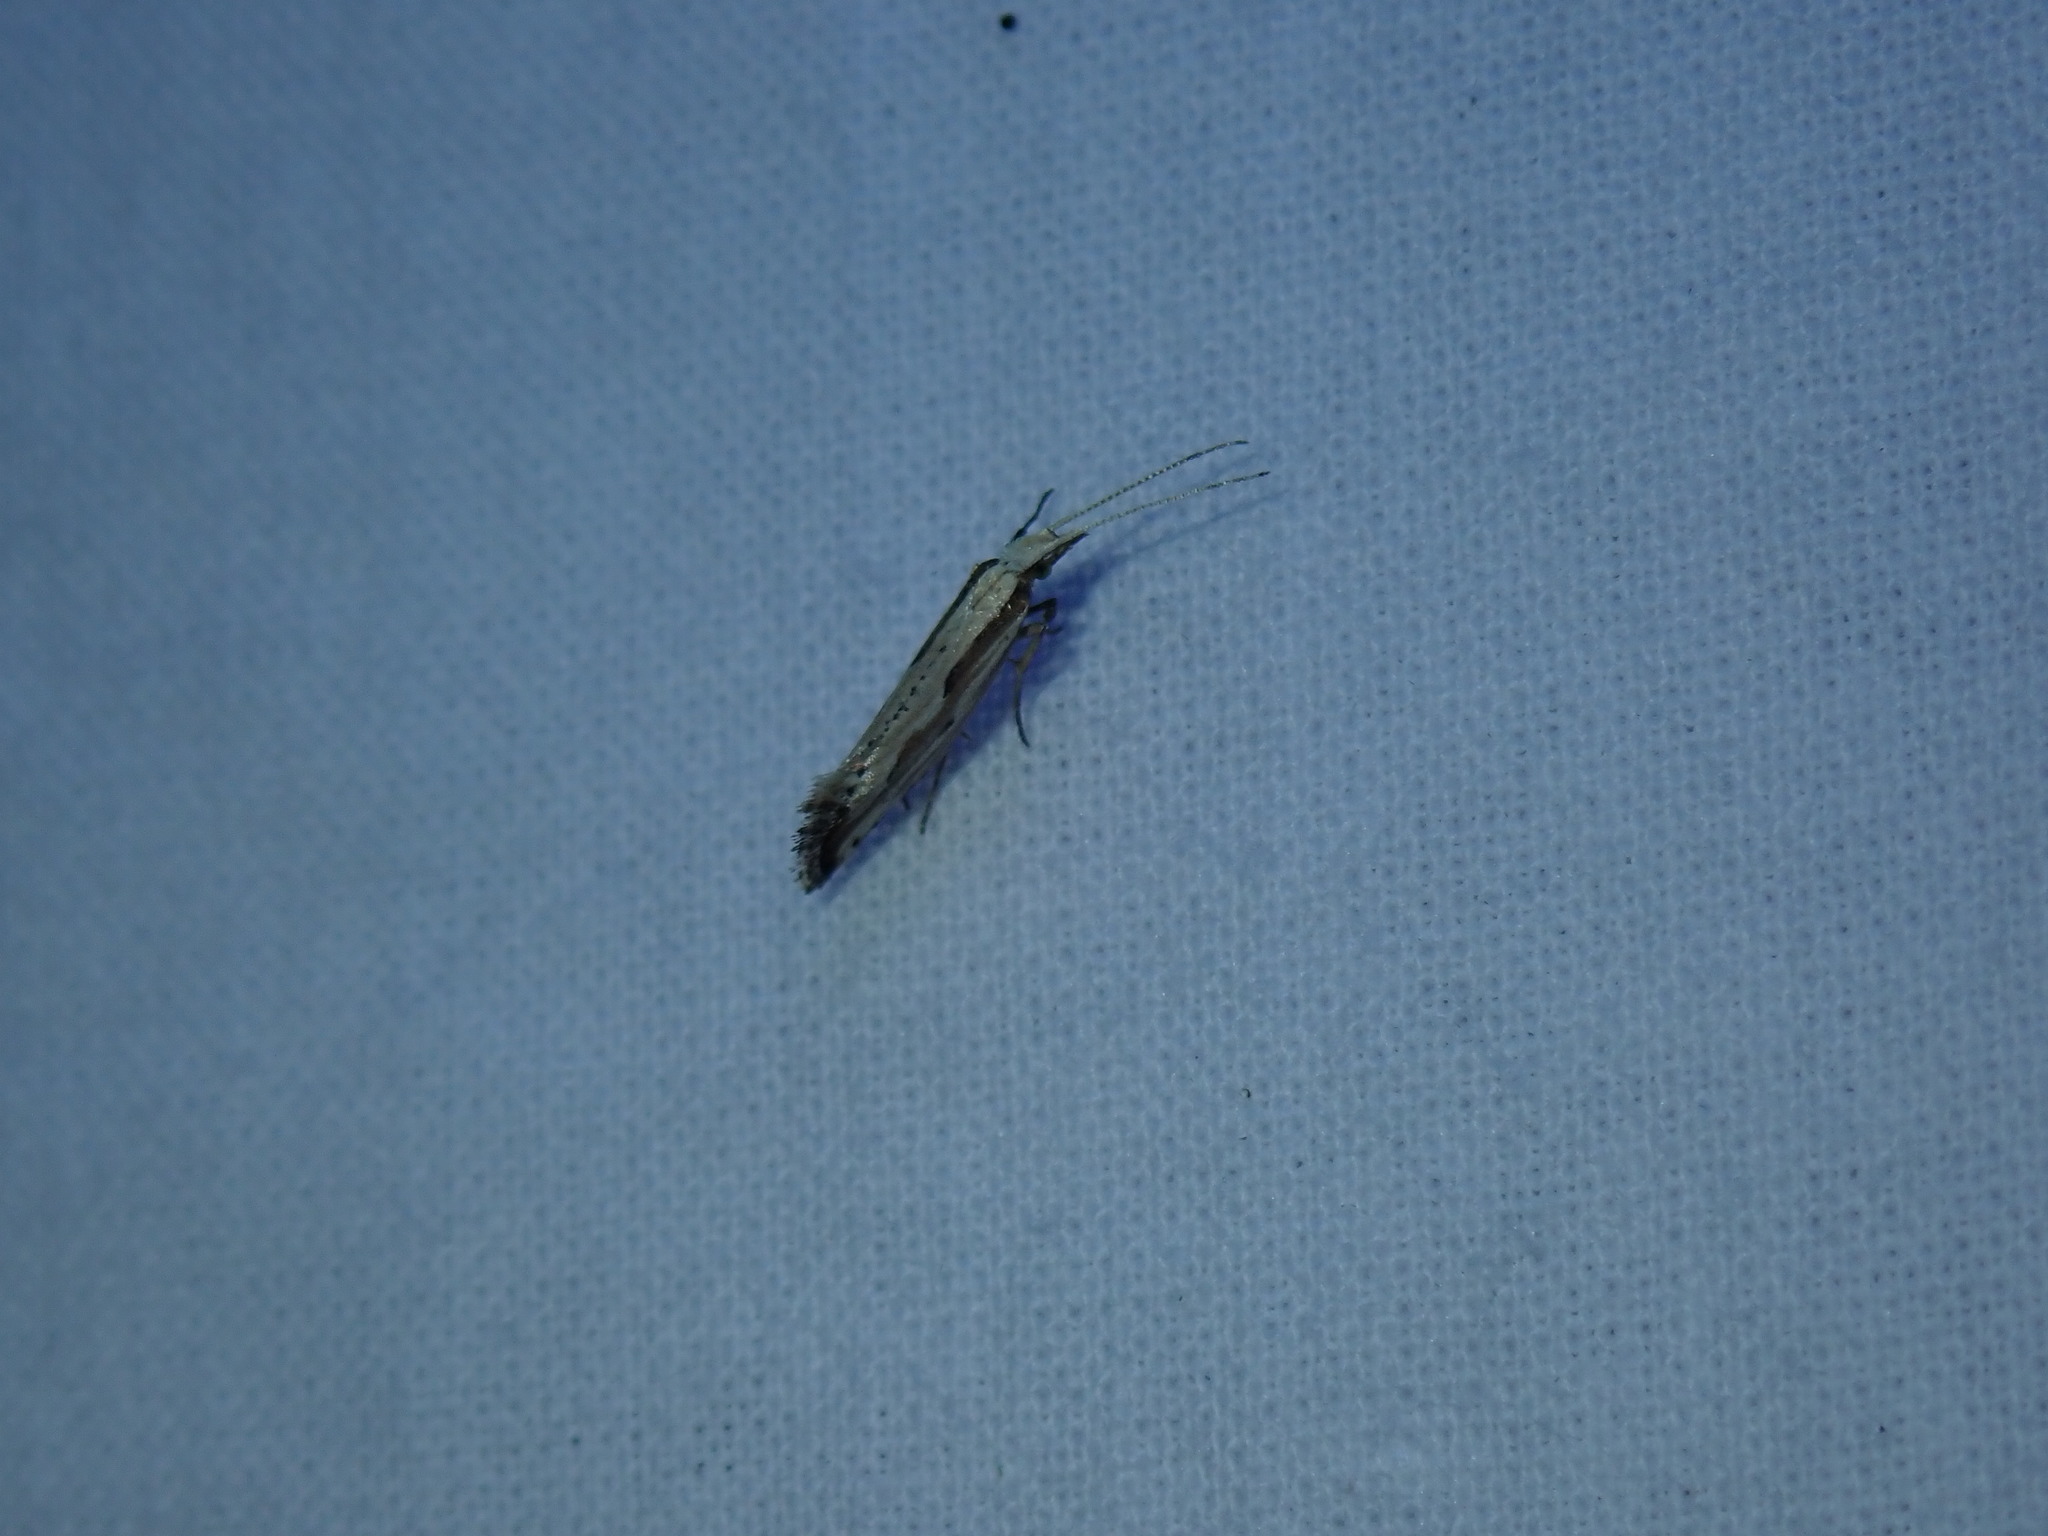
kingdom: Animalia
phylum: Arthropoda
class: Insecta
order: Lepidoptera
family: Plutellidae
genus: Plutella
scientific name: Plutella porrectella
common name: Dame's rocket moth
